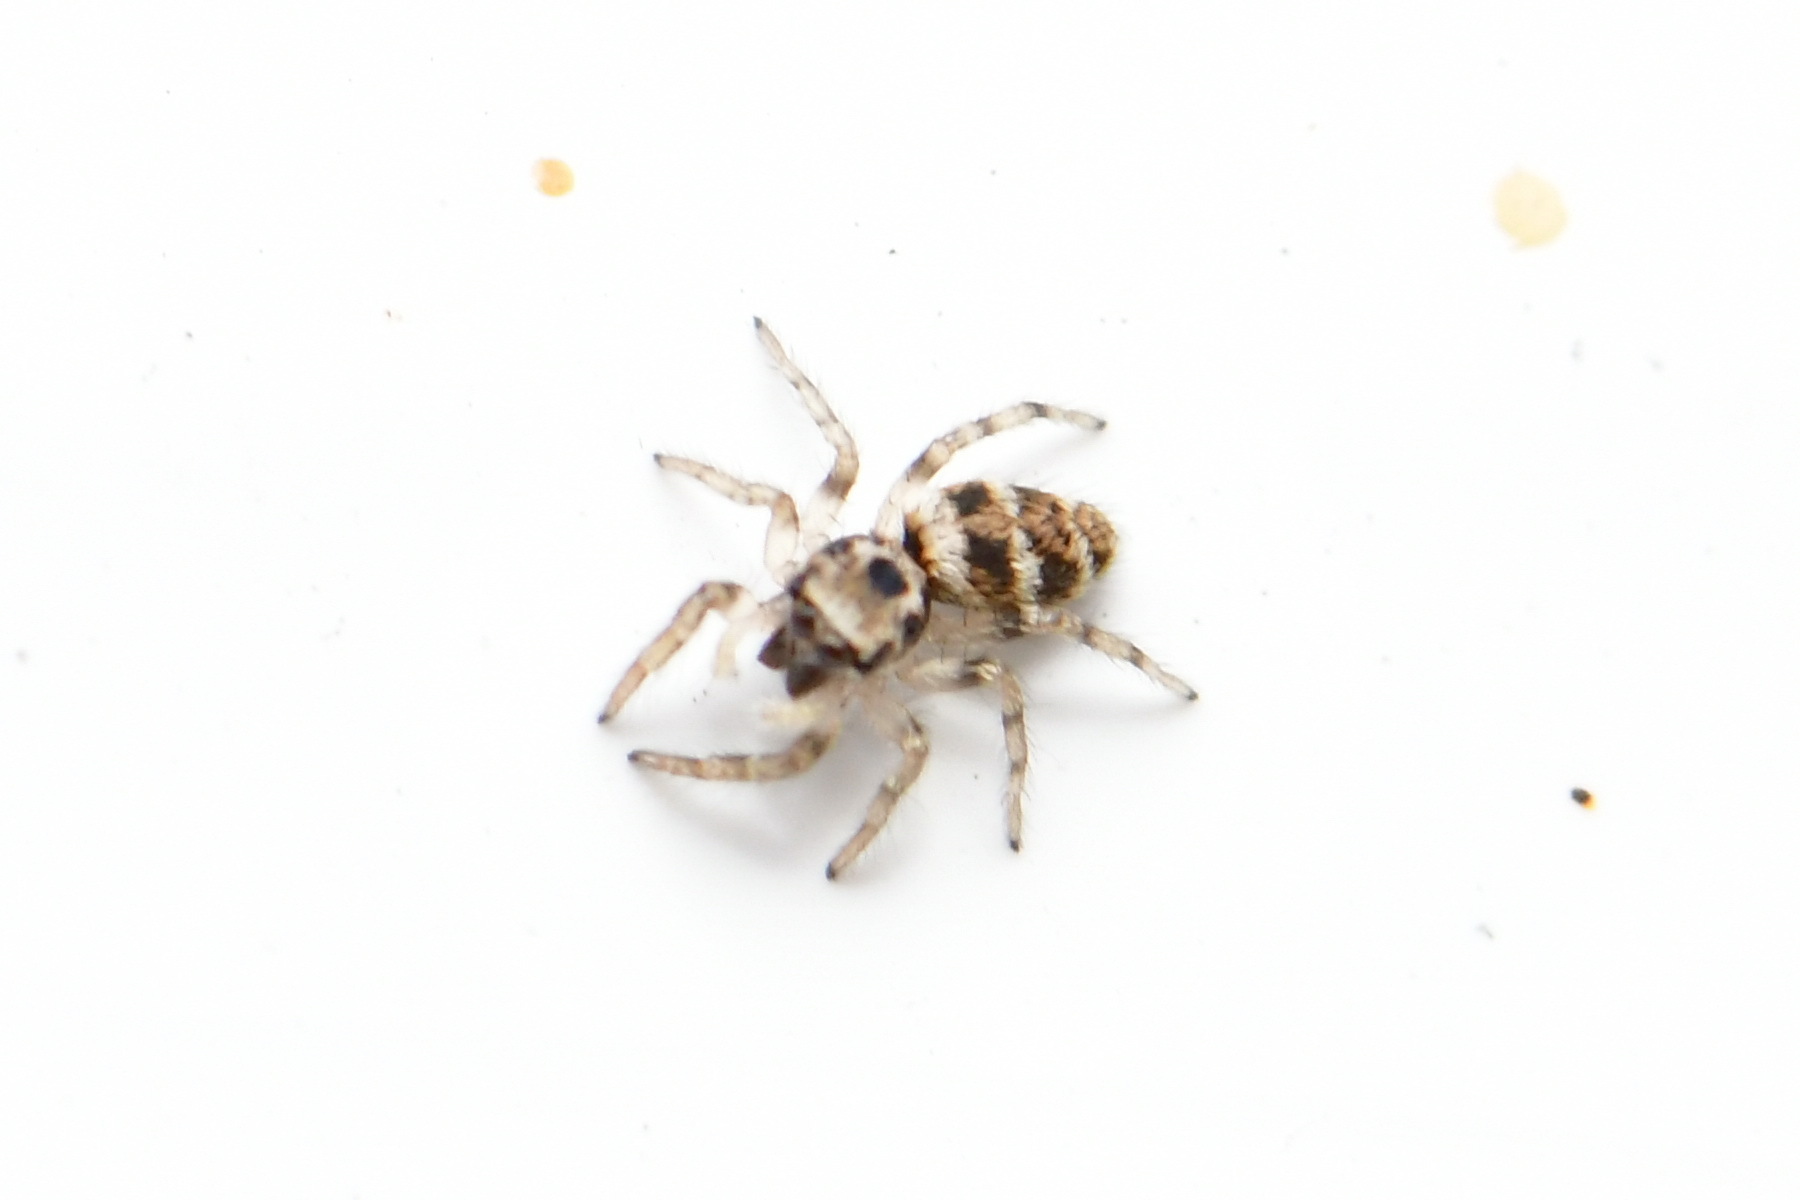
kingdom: Animalia
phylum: Arthropoda
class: Arachnida
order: Araneae
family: Salticidae
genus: Salticus
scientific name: Salticus scenicus
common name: Zebra jumper
